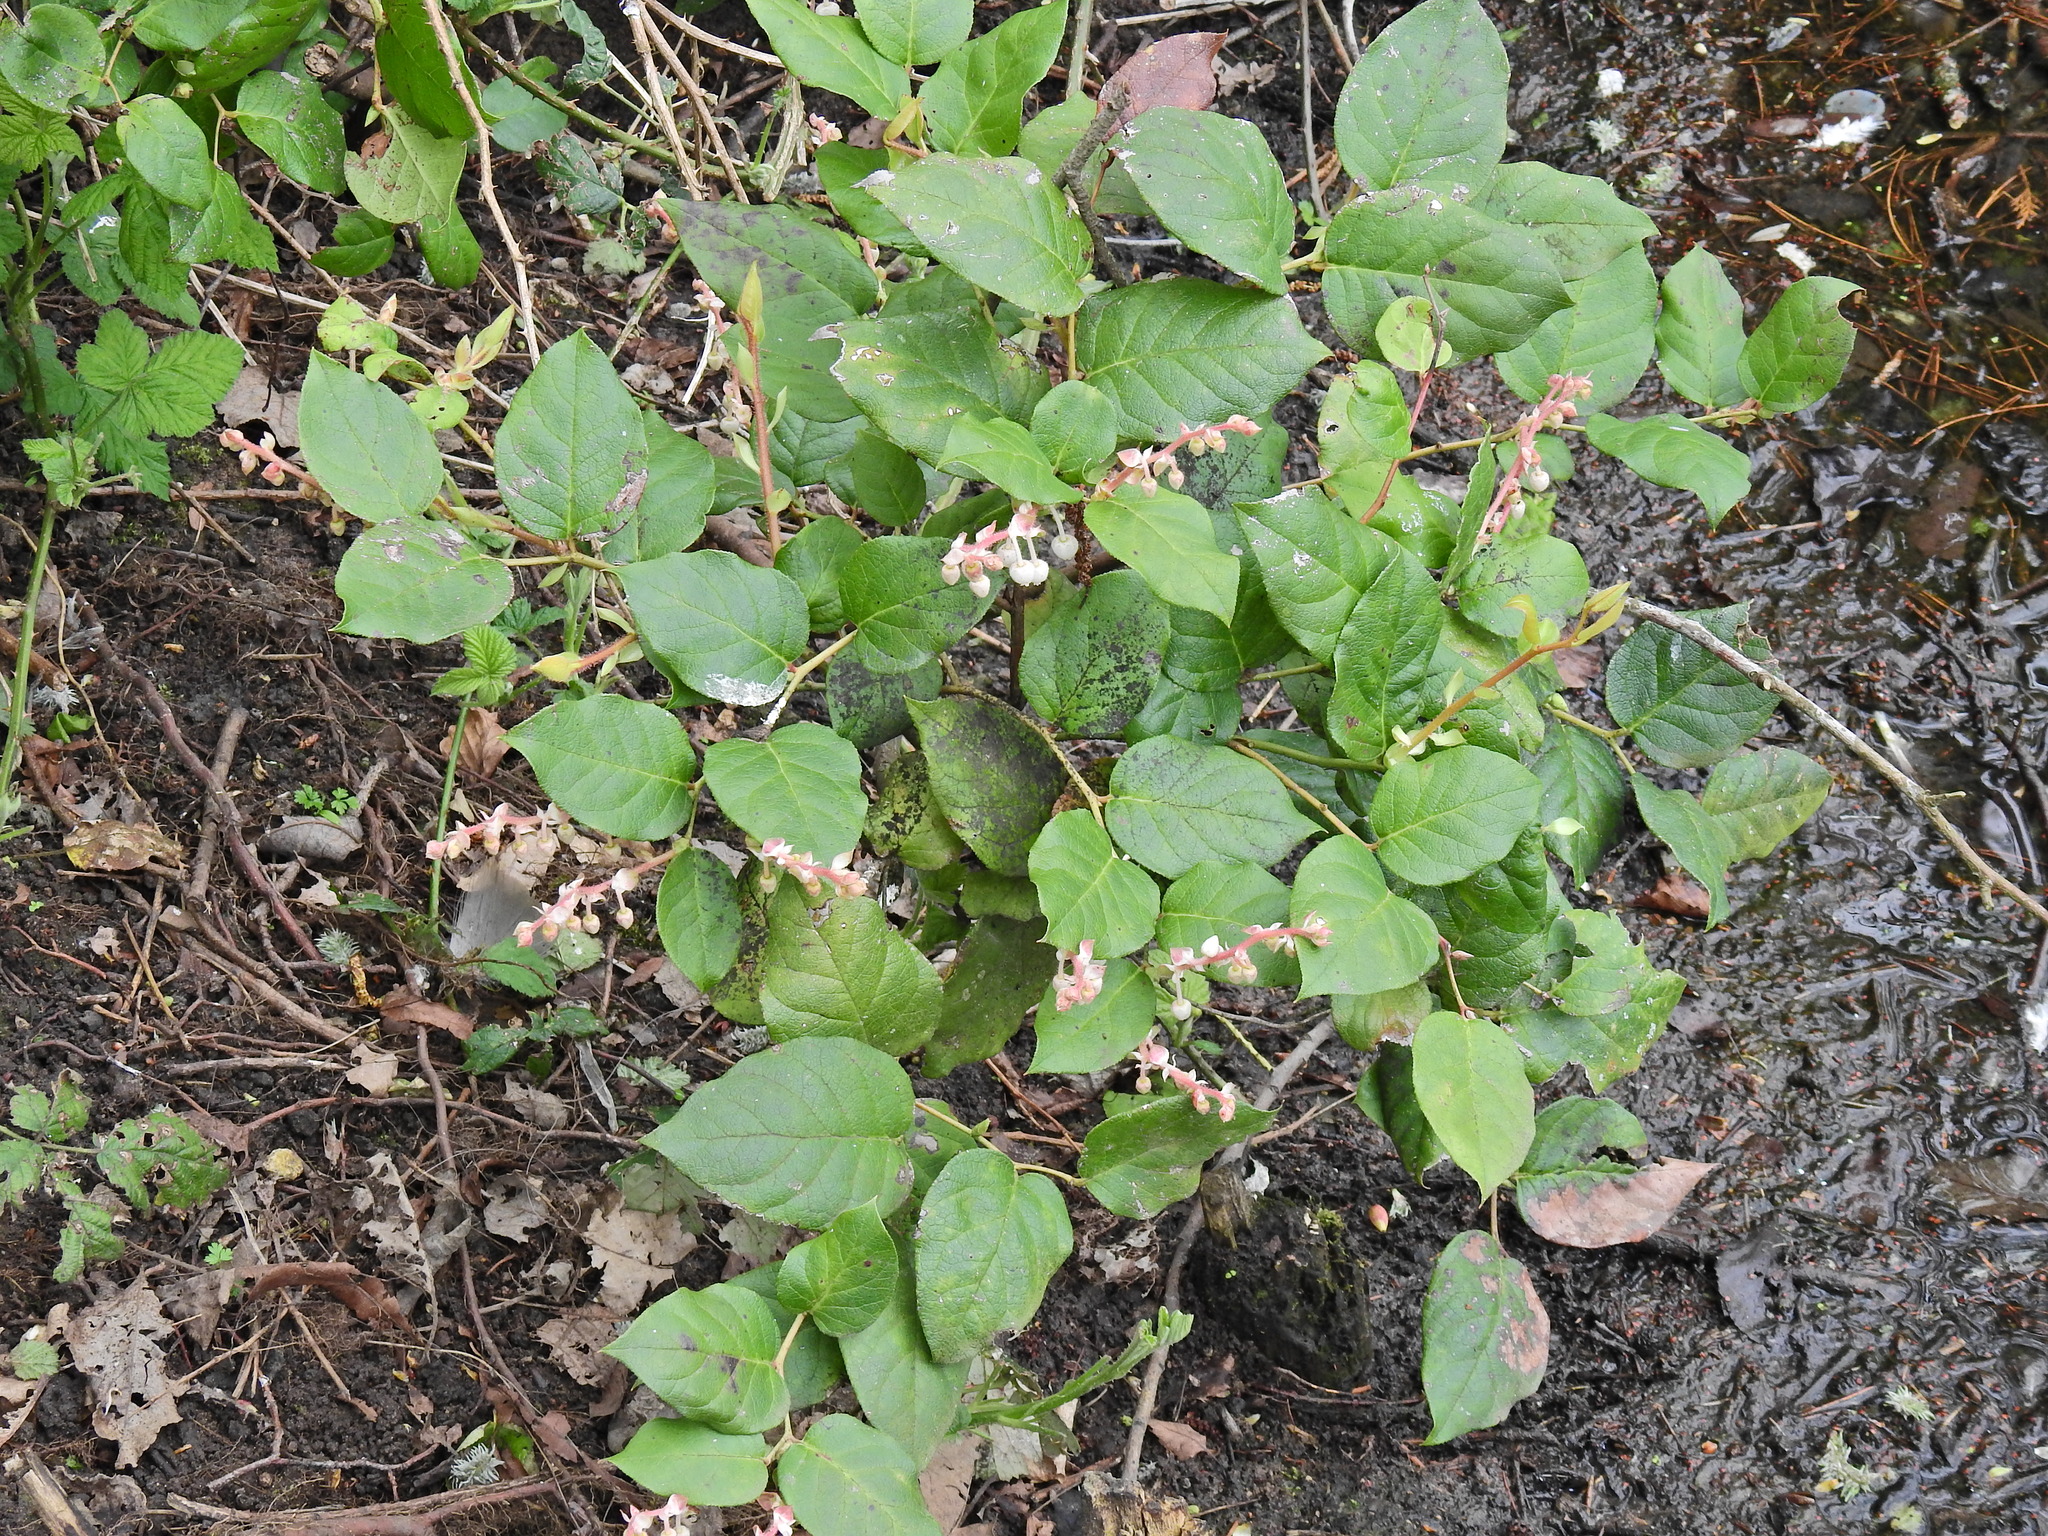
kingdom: Plantae
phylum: Tracheophyta
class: Magnoliopsida
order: Ericales
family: Ericaceae
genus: Gaultheria
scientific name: Gaultheria shallon
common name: Shallon
